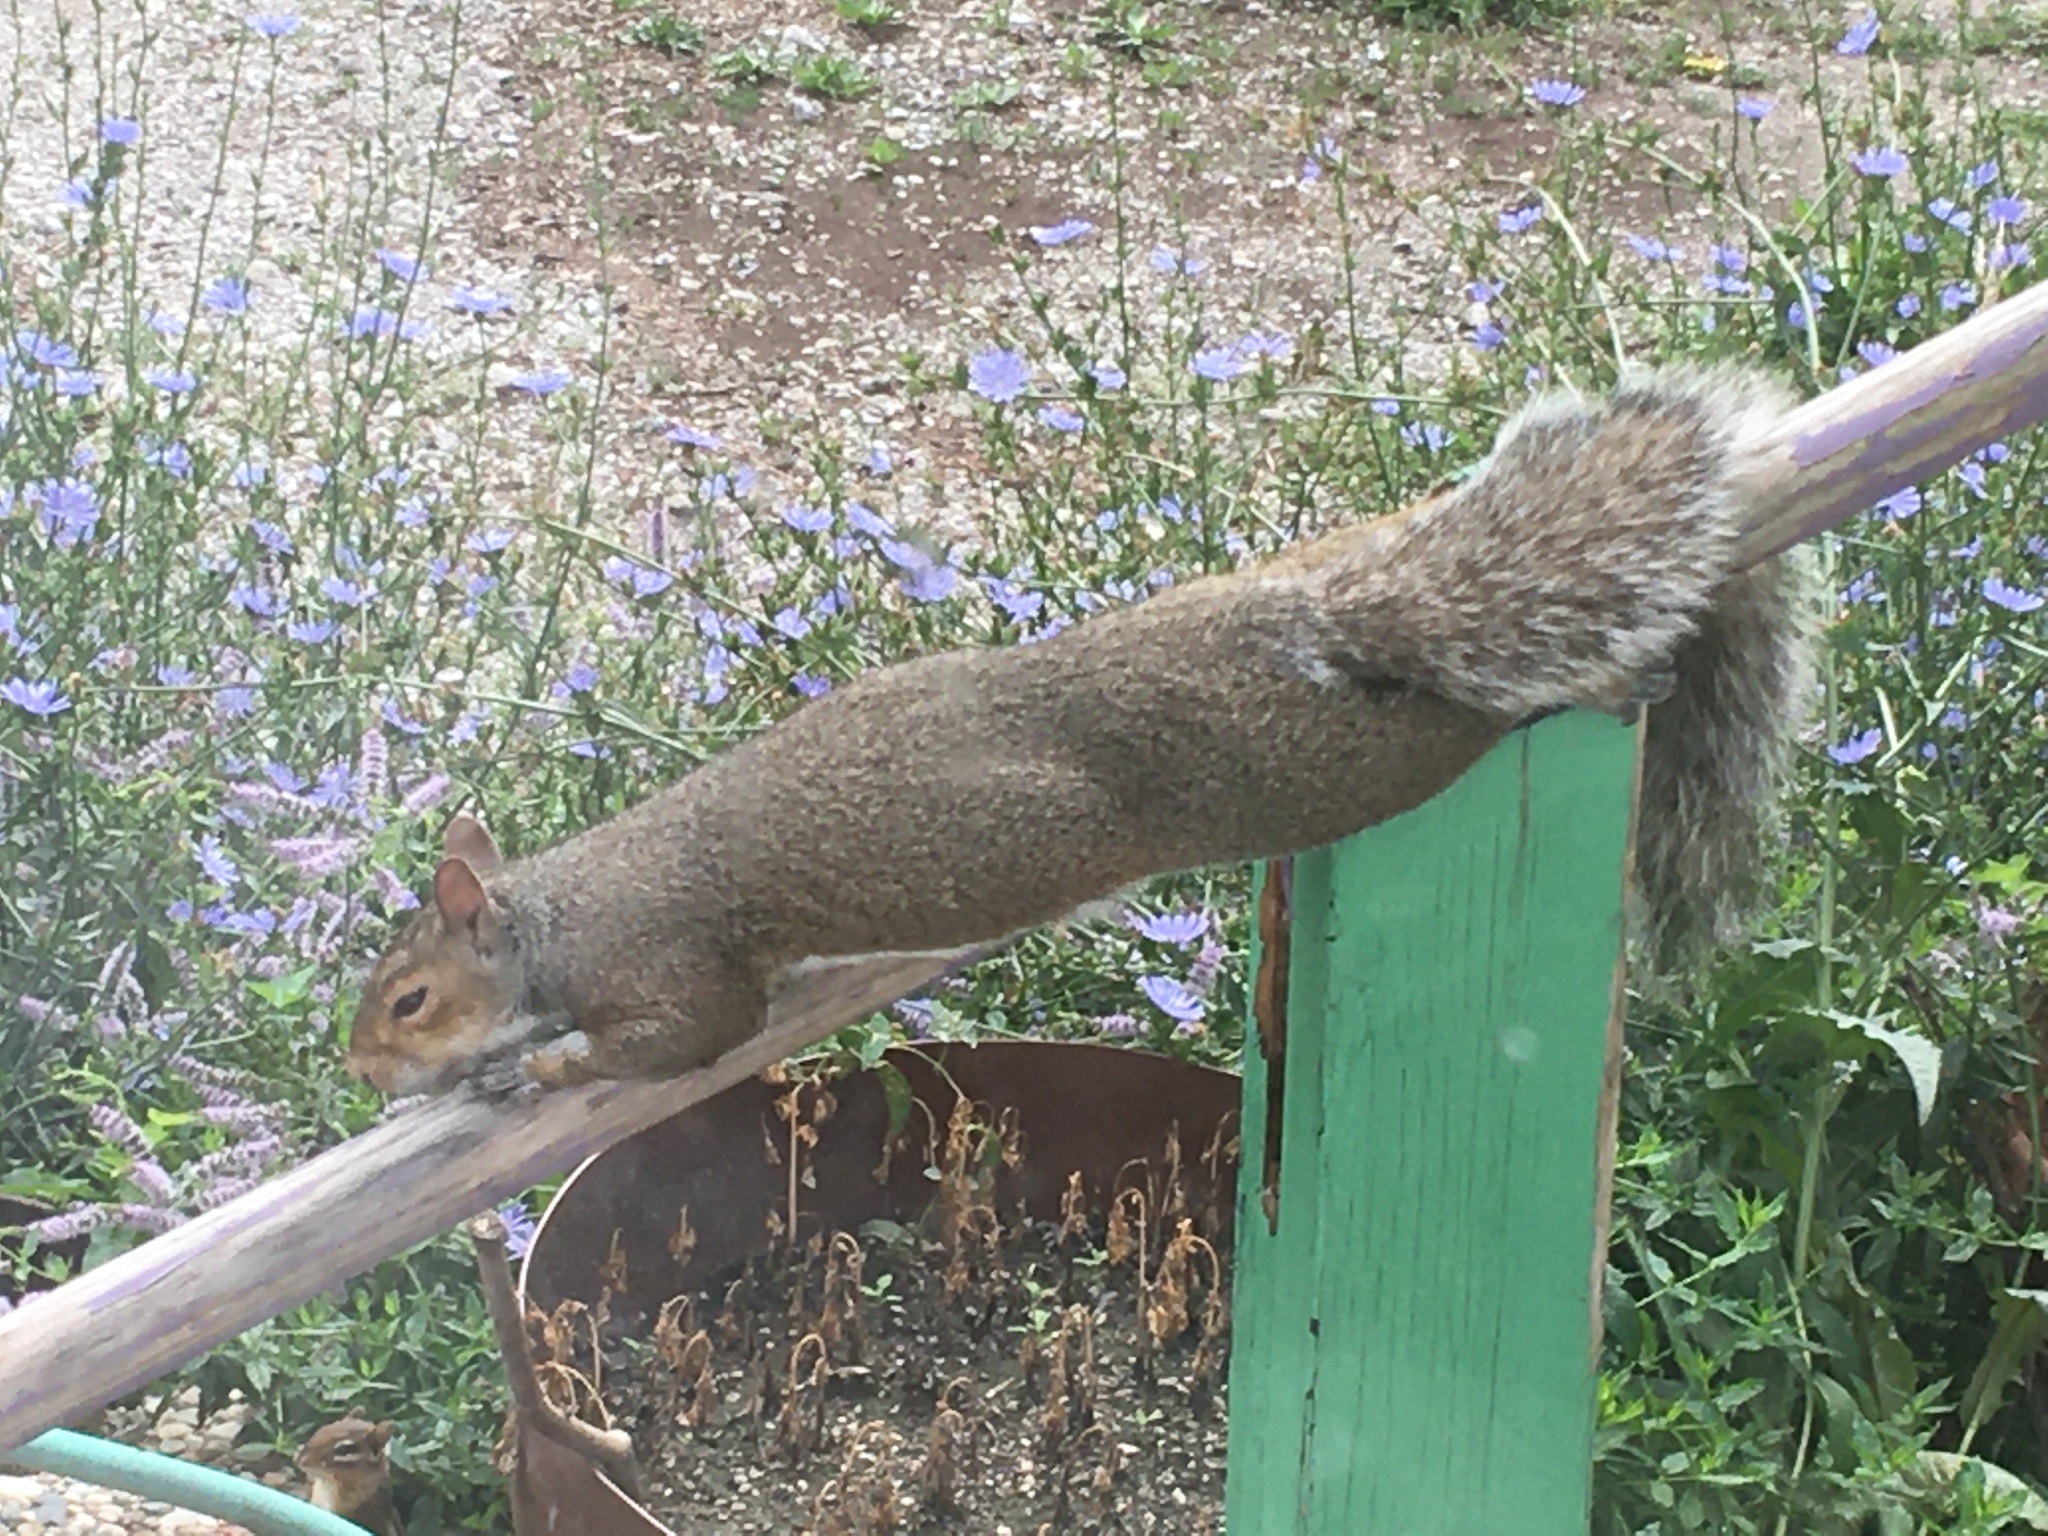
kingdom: Animalia
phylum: Chordata
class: Mammalia
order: Rodentia
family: Sciuridae
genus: Sciurus
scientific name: Sciurus carolinensis
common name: Eastern gray squirrel
